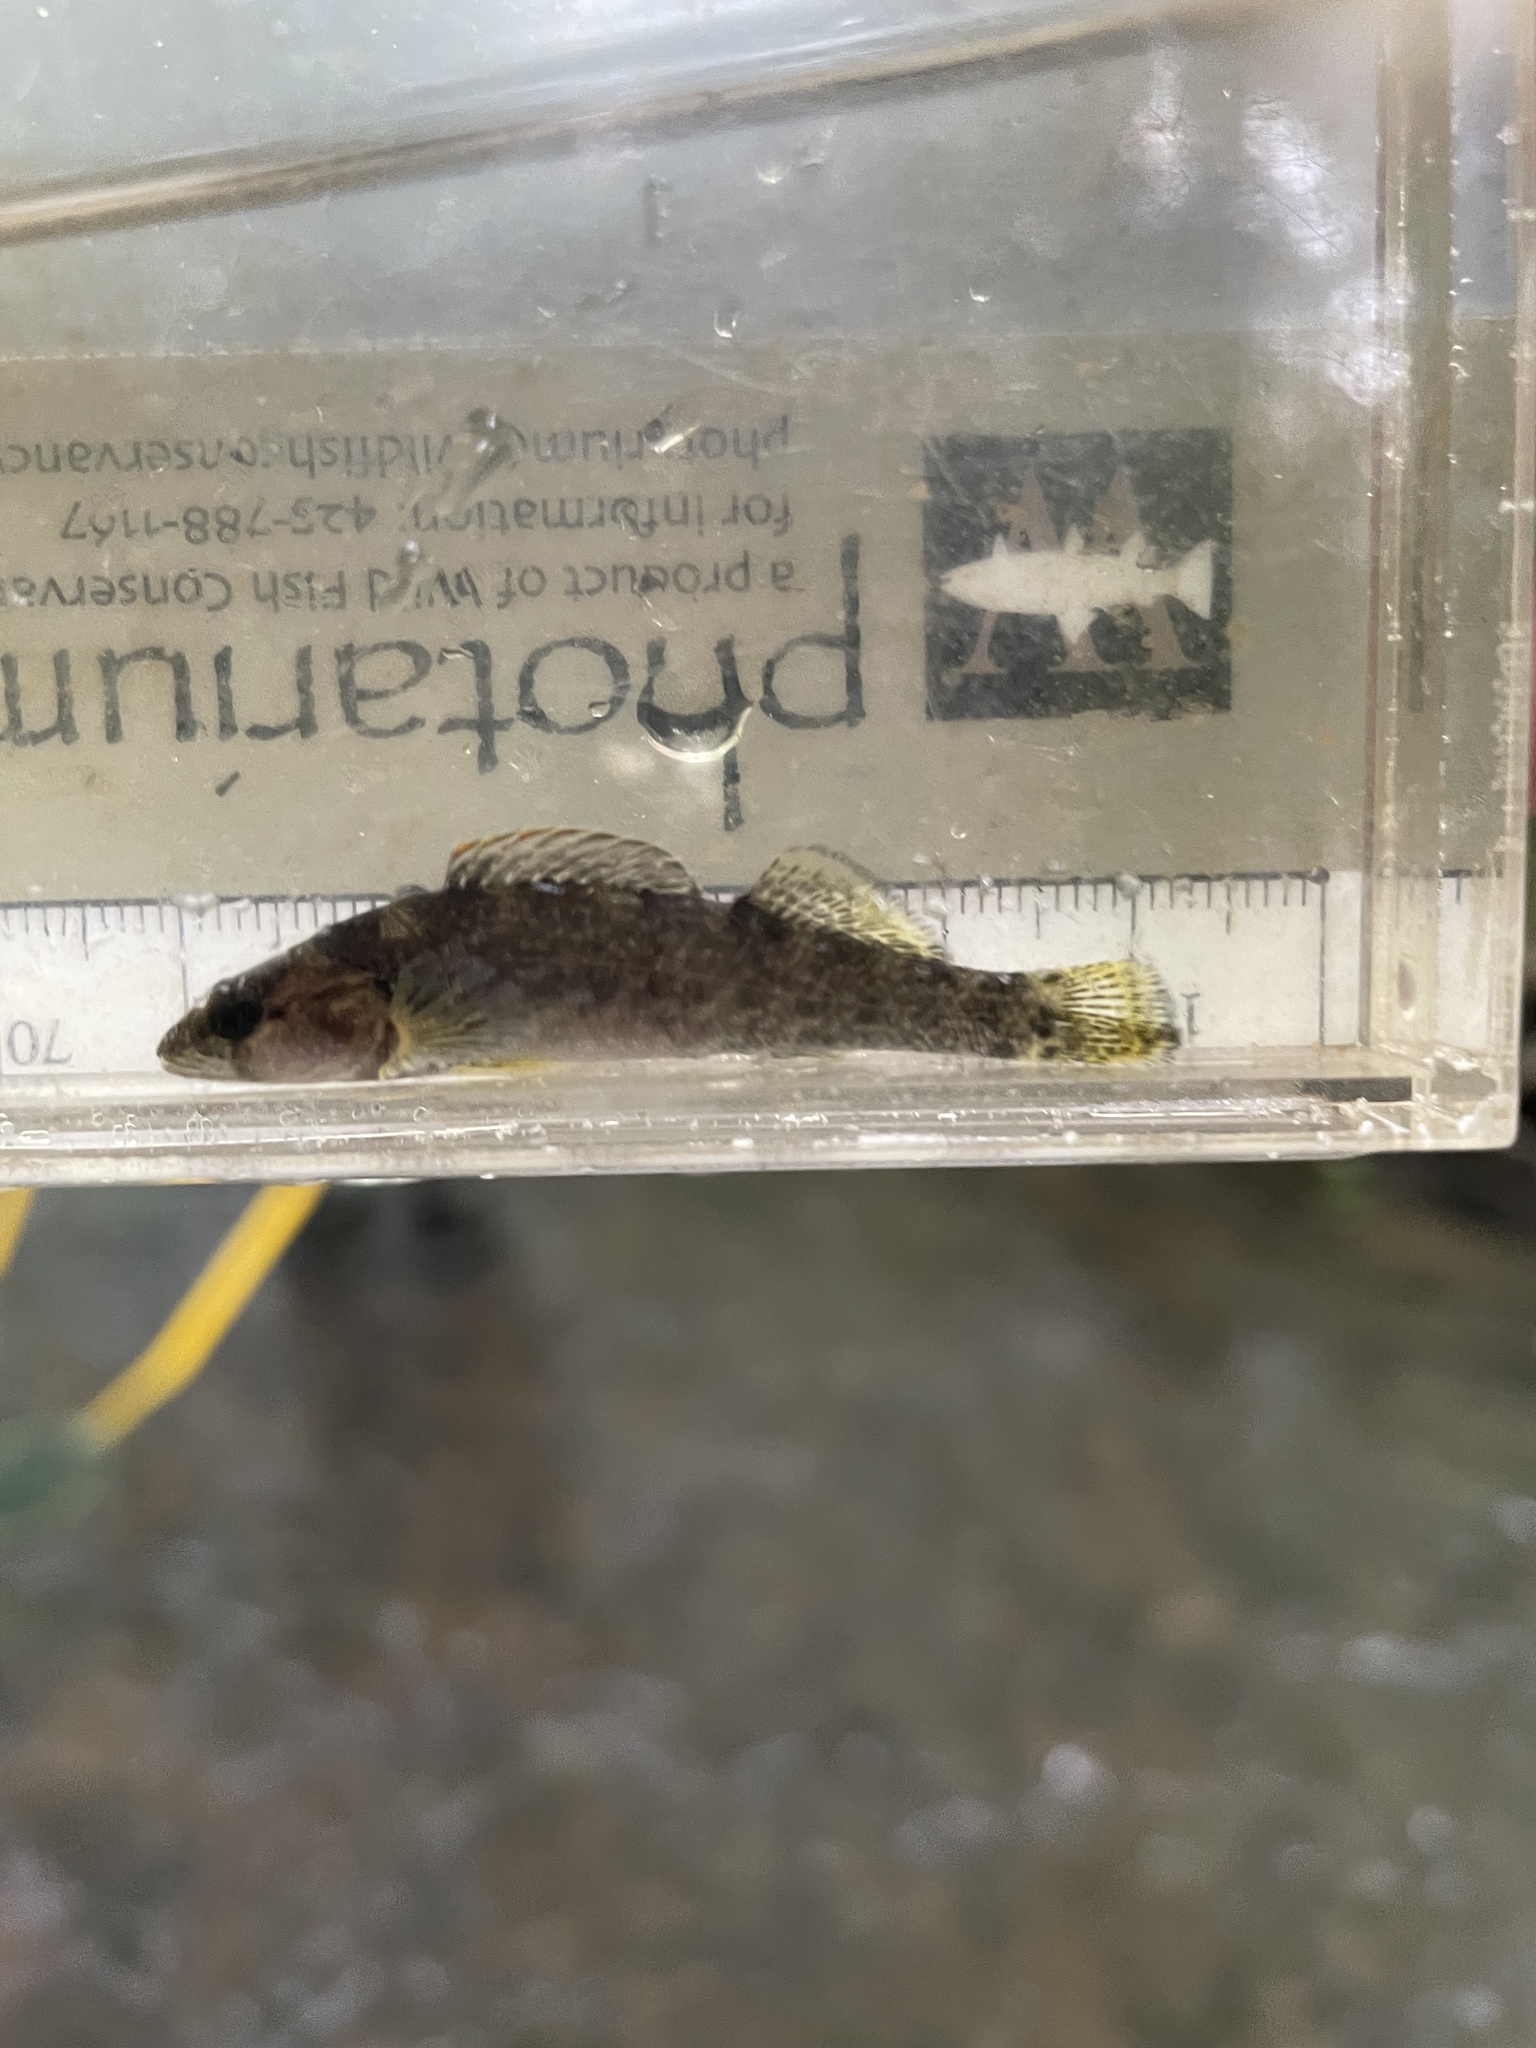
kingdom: Animalia
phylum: Chordata
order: Perciformes
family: Percidae
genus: Etheostoma
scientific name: Etheostoma jordani
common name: Greenbreast darter
